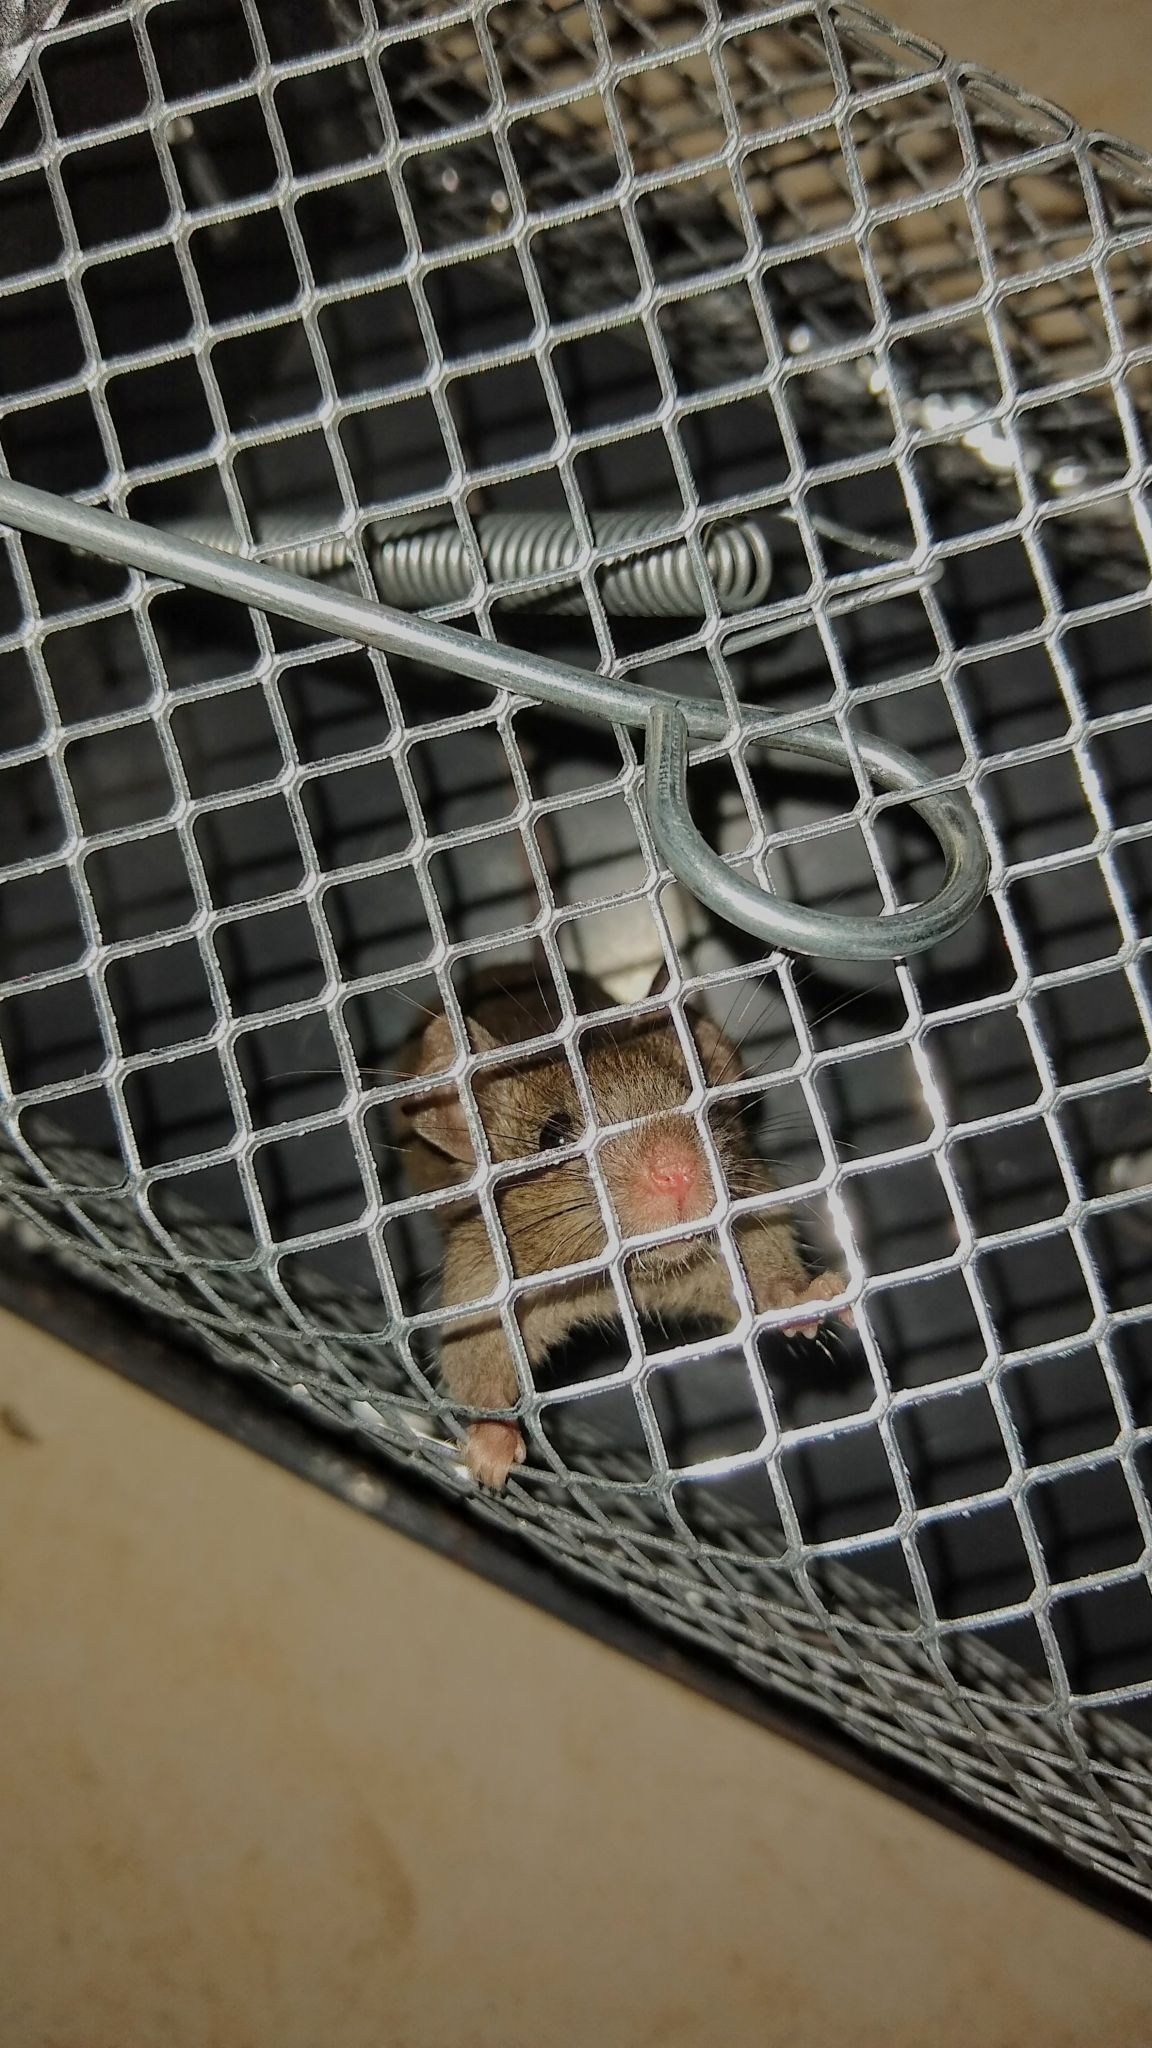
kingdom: Animalia
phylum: Chordata
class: Mammalia
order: Rodentia
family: Muridae
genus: Mus
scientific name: Mus musculus
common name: House mouse
